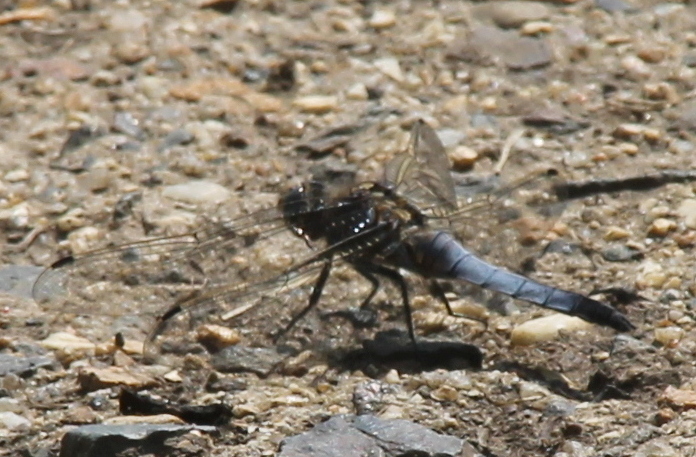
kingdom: Animalia
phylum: Arthropoda
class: Insecta
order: Odonata
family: Libellulidae
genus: Orthetrum
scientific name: Orthetrum cancellatum
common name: Black-tailed skimmer
